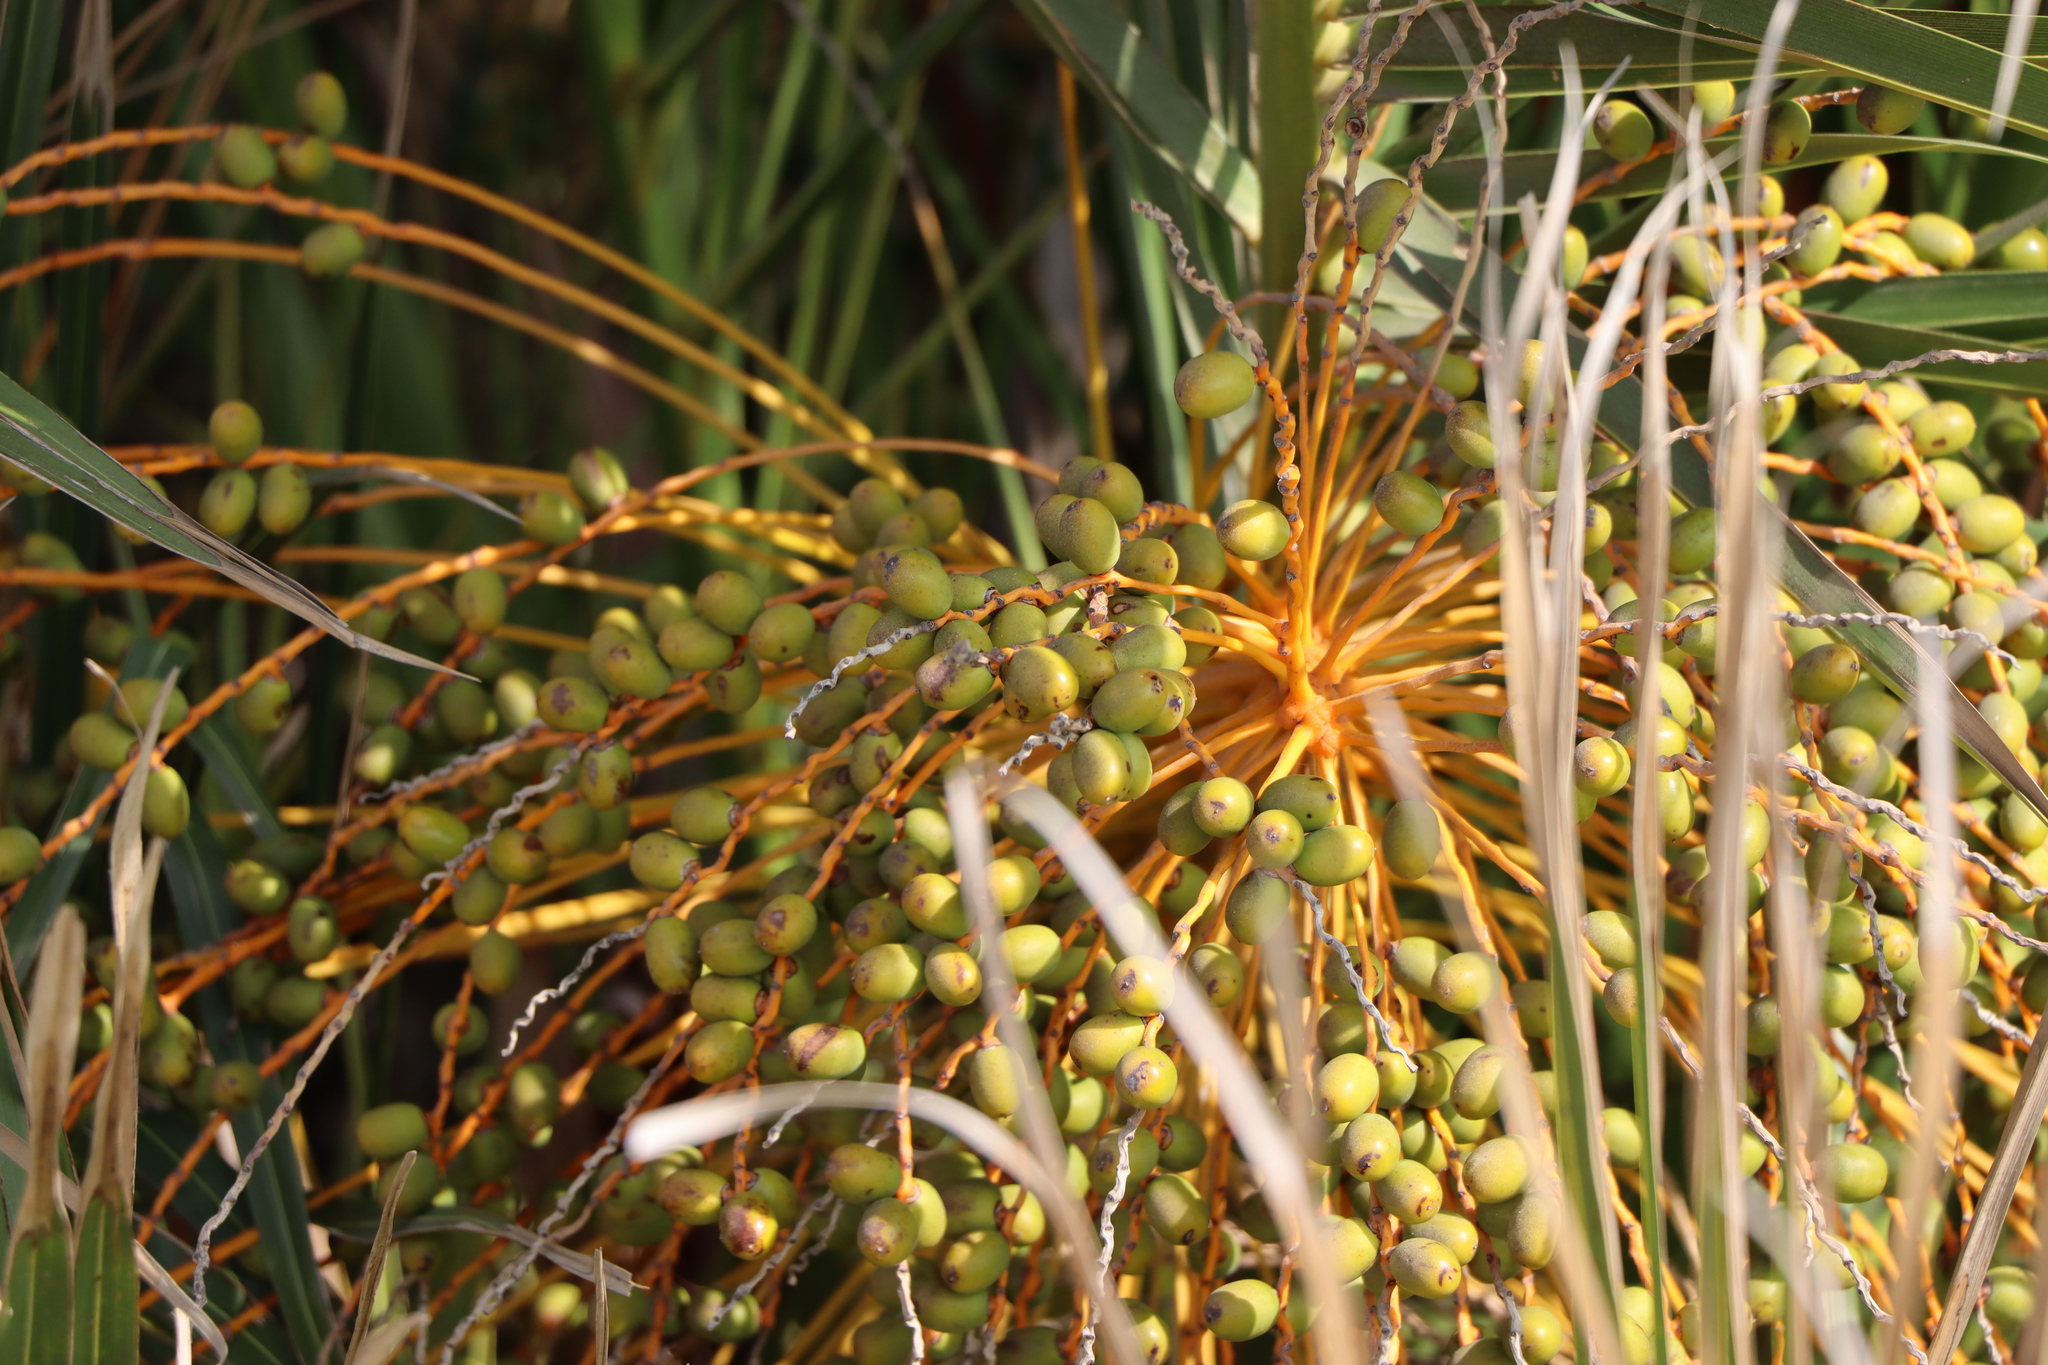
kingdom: Plantae
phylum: Tracheophyta
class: Liliopsida
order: Arecales
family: Arecaceae
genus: Phoenix
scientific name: Phoenix canariensis
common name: Canary island date palm
